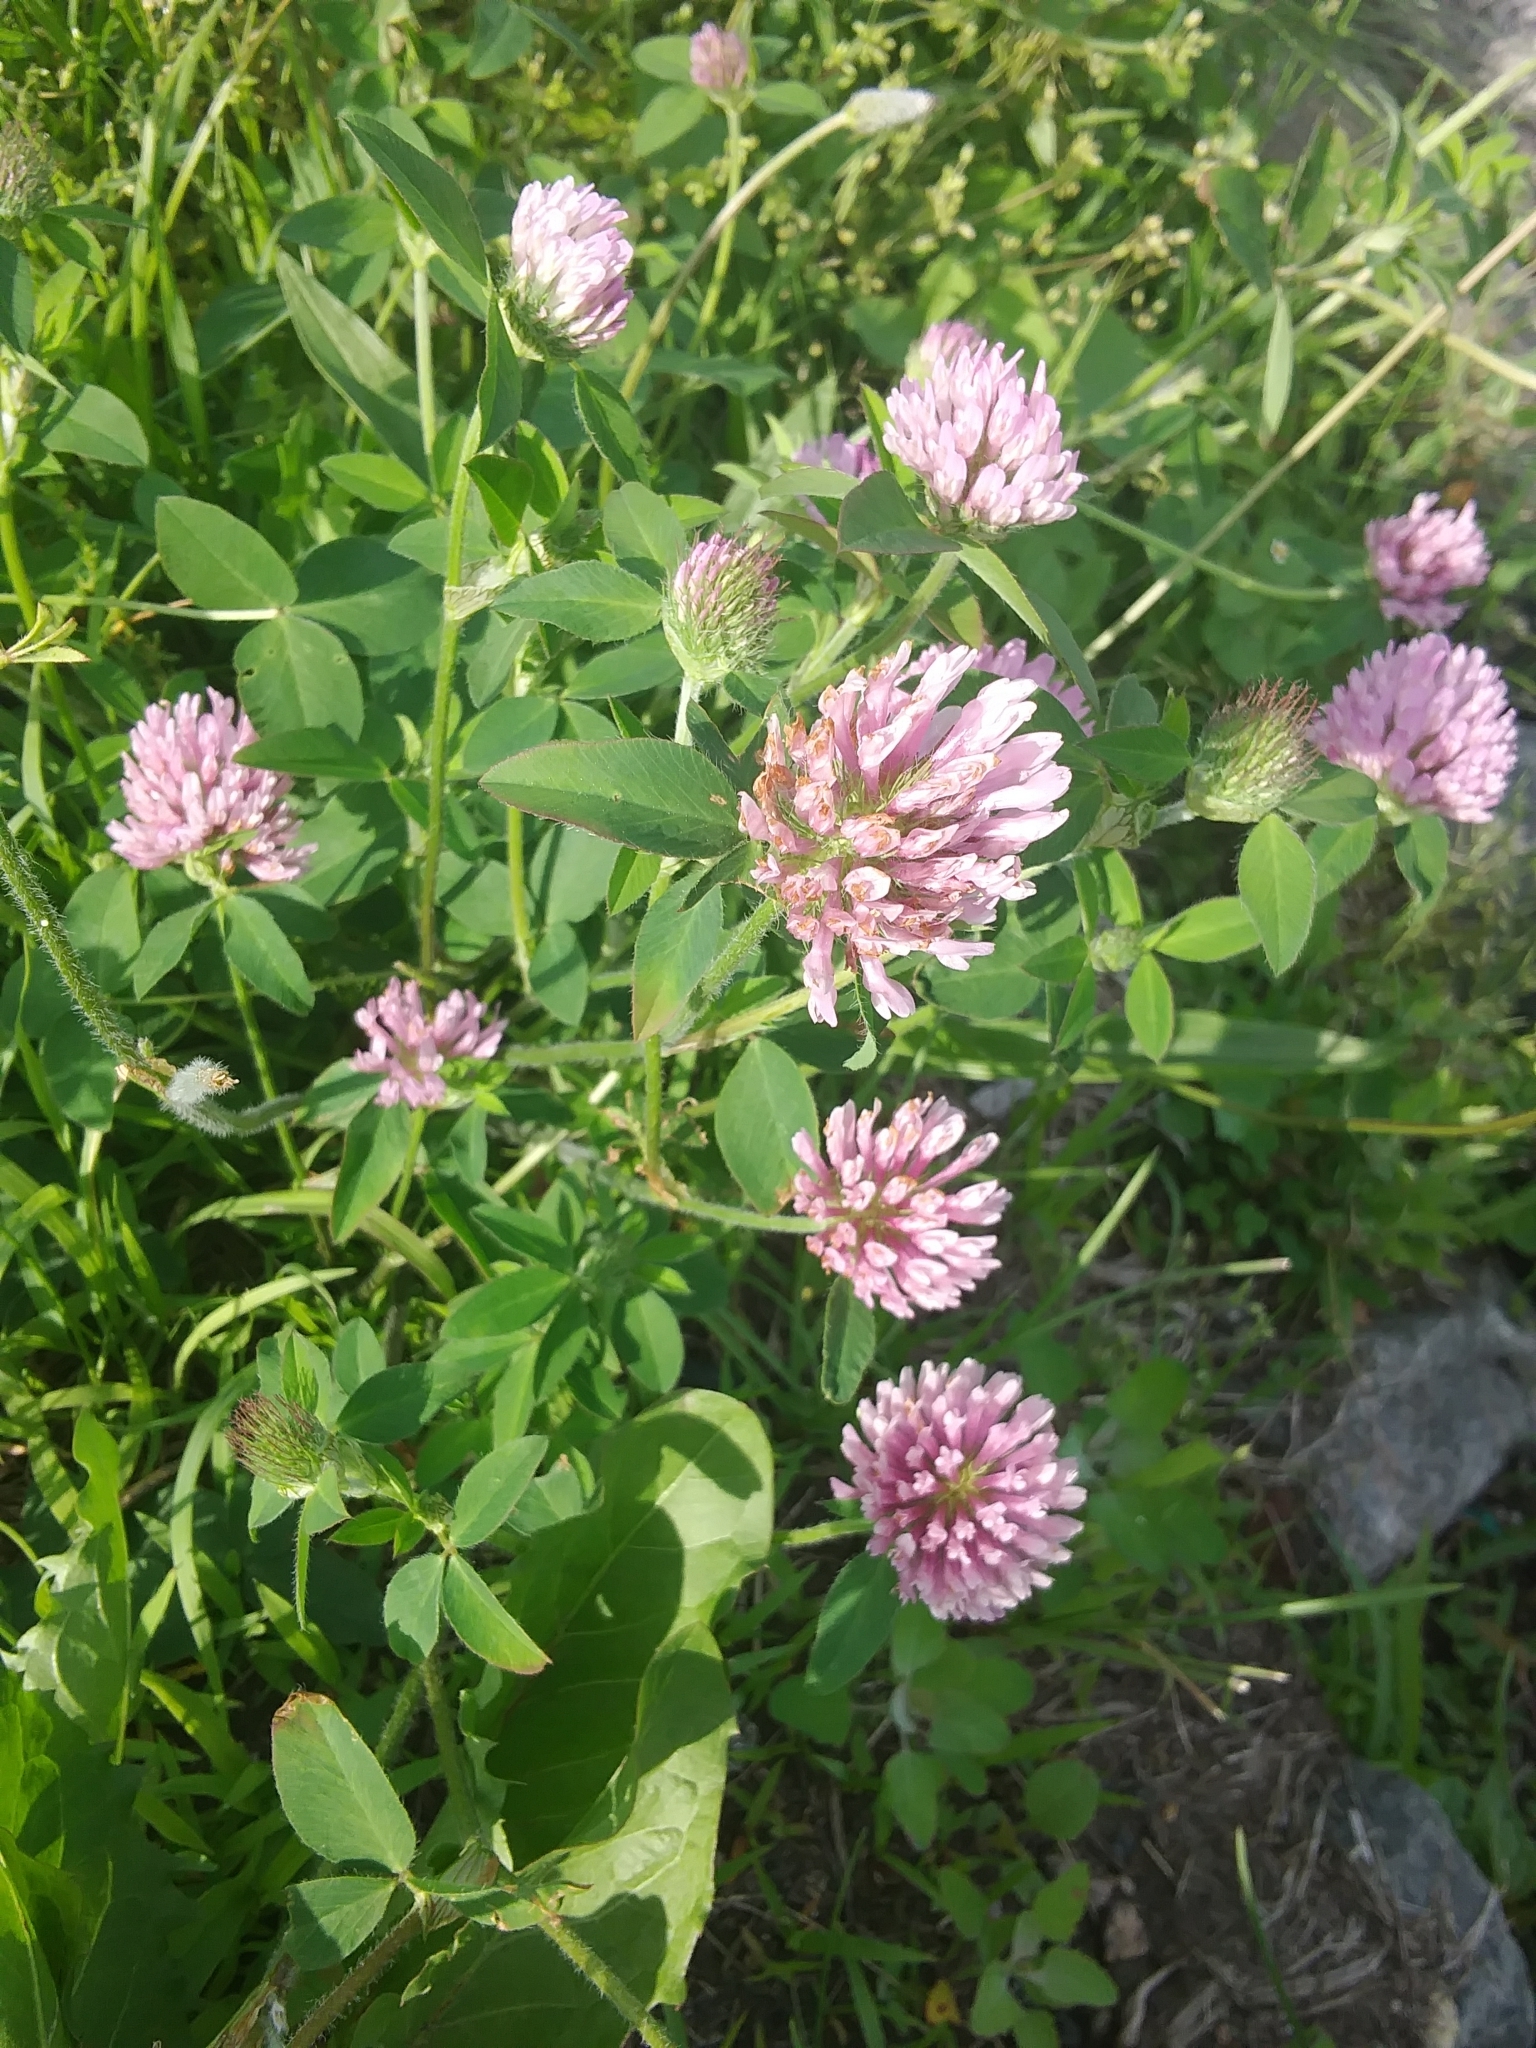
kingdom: Plantae
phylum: Tracheophyta
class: Magnoliopsida
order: Fabales
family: Fabaceae
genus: Trifolium
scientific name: Trifolium pratense
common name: Red clover
